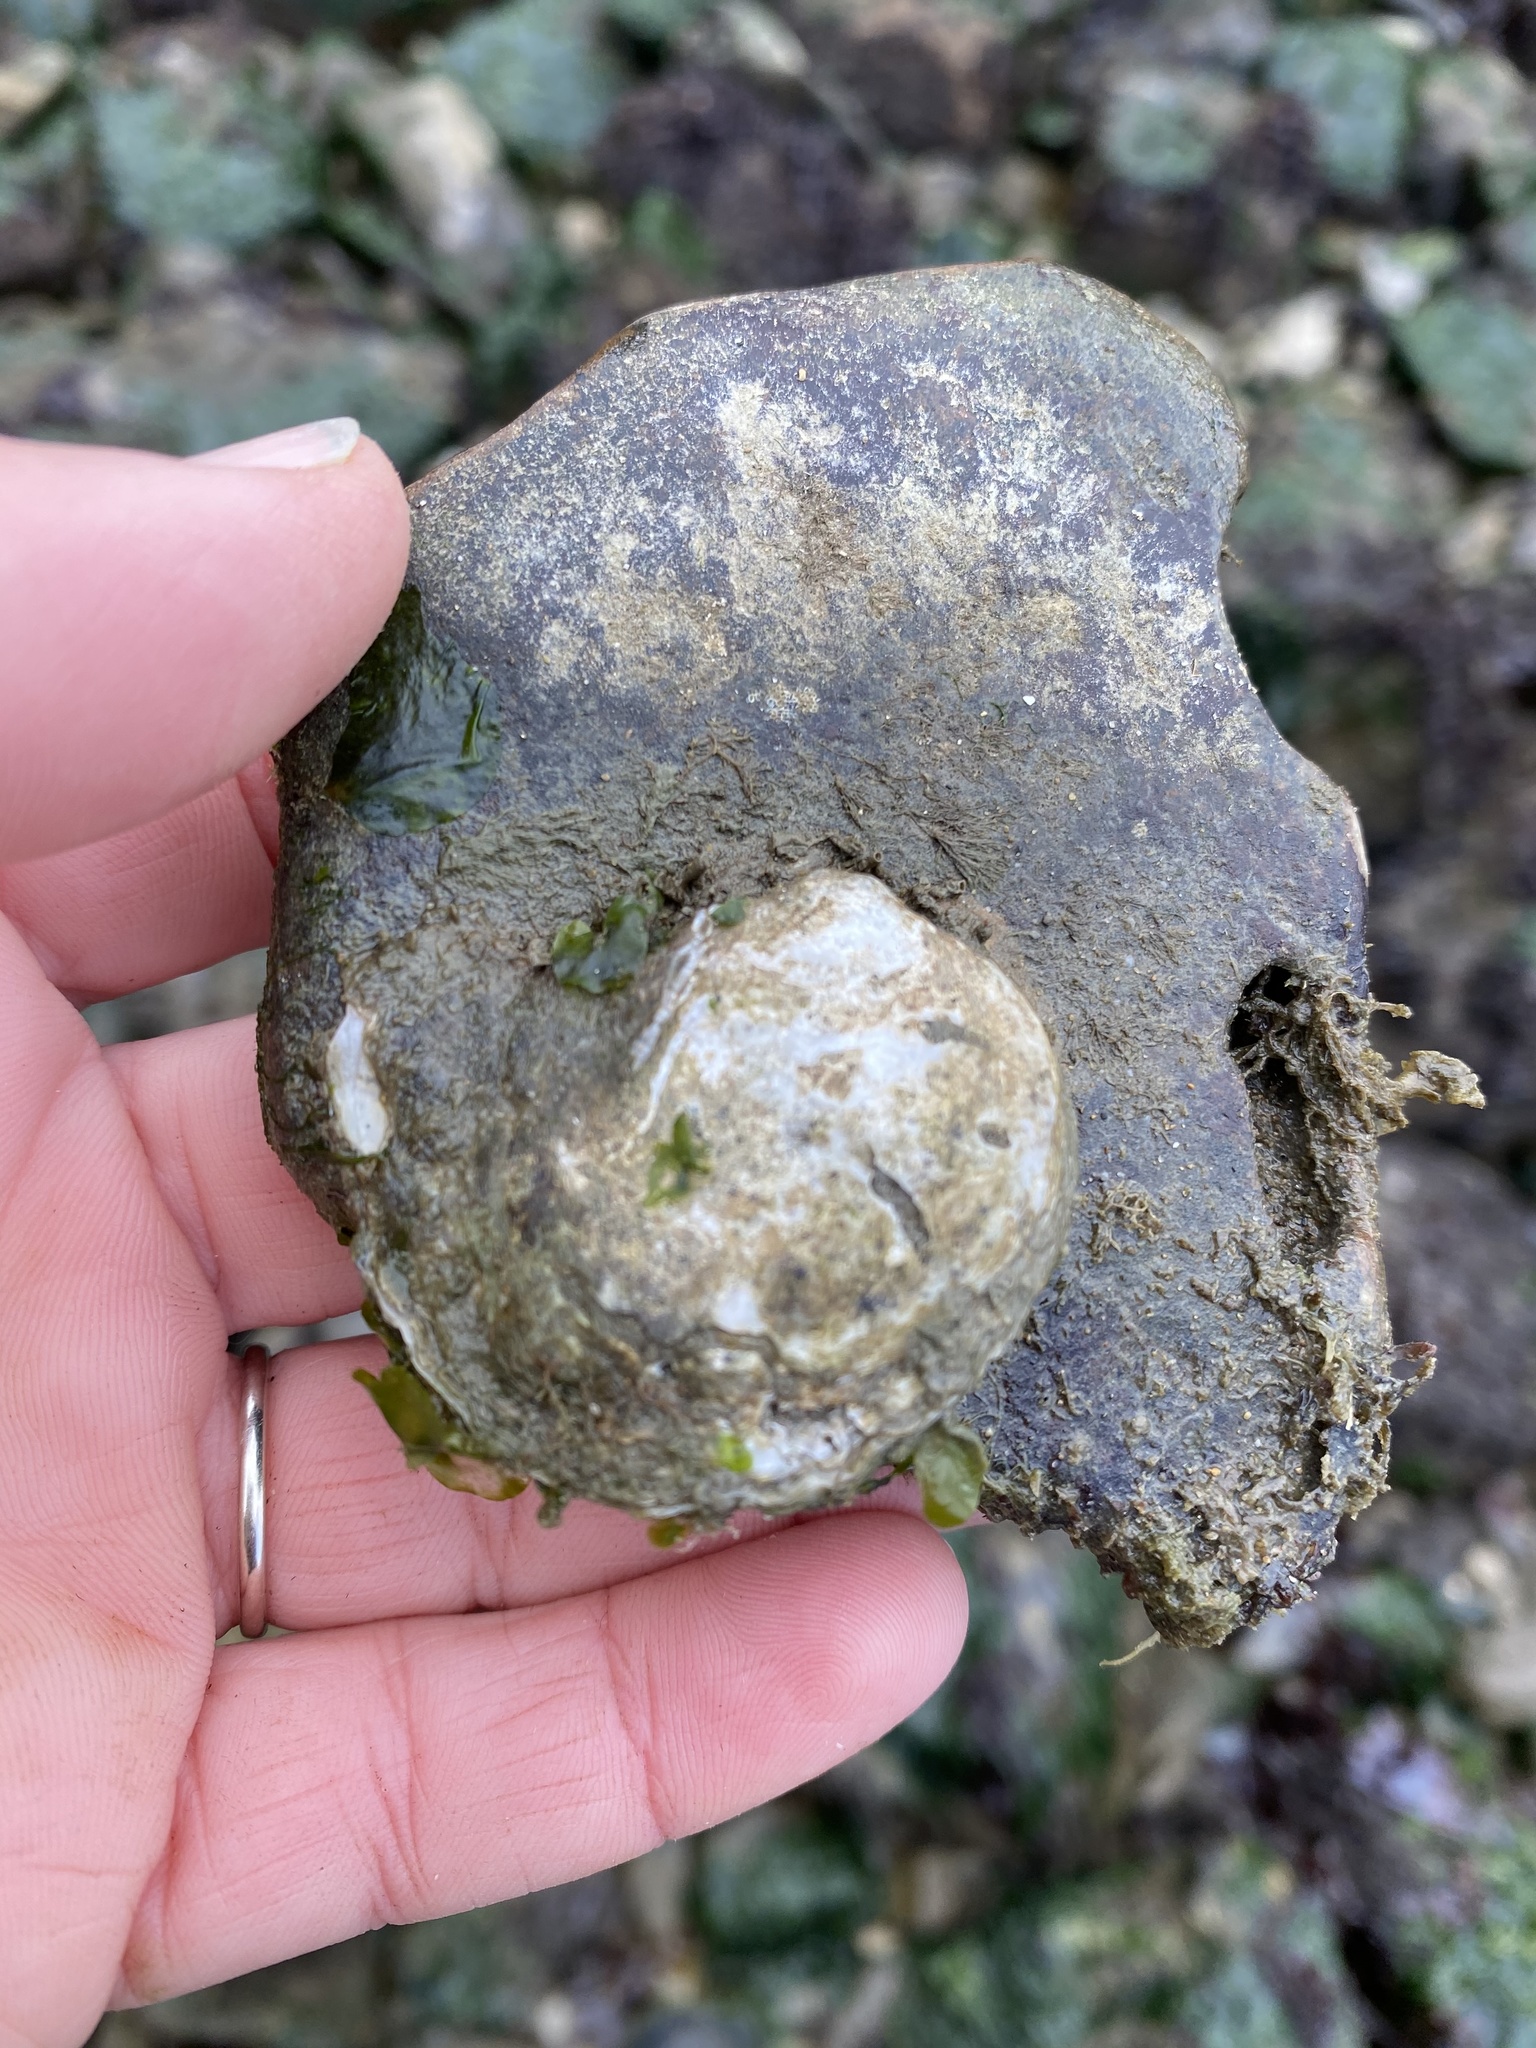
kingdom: Animalia
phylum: Mollusca
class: Bivalvia
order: Ostreida
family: Ostreidae
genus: Ostrea
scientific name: Ostrea lurida
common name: Olympia flat oyster
